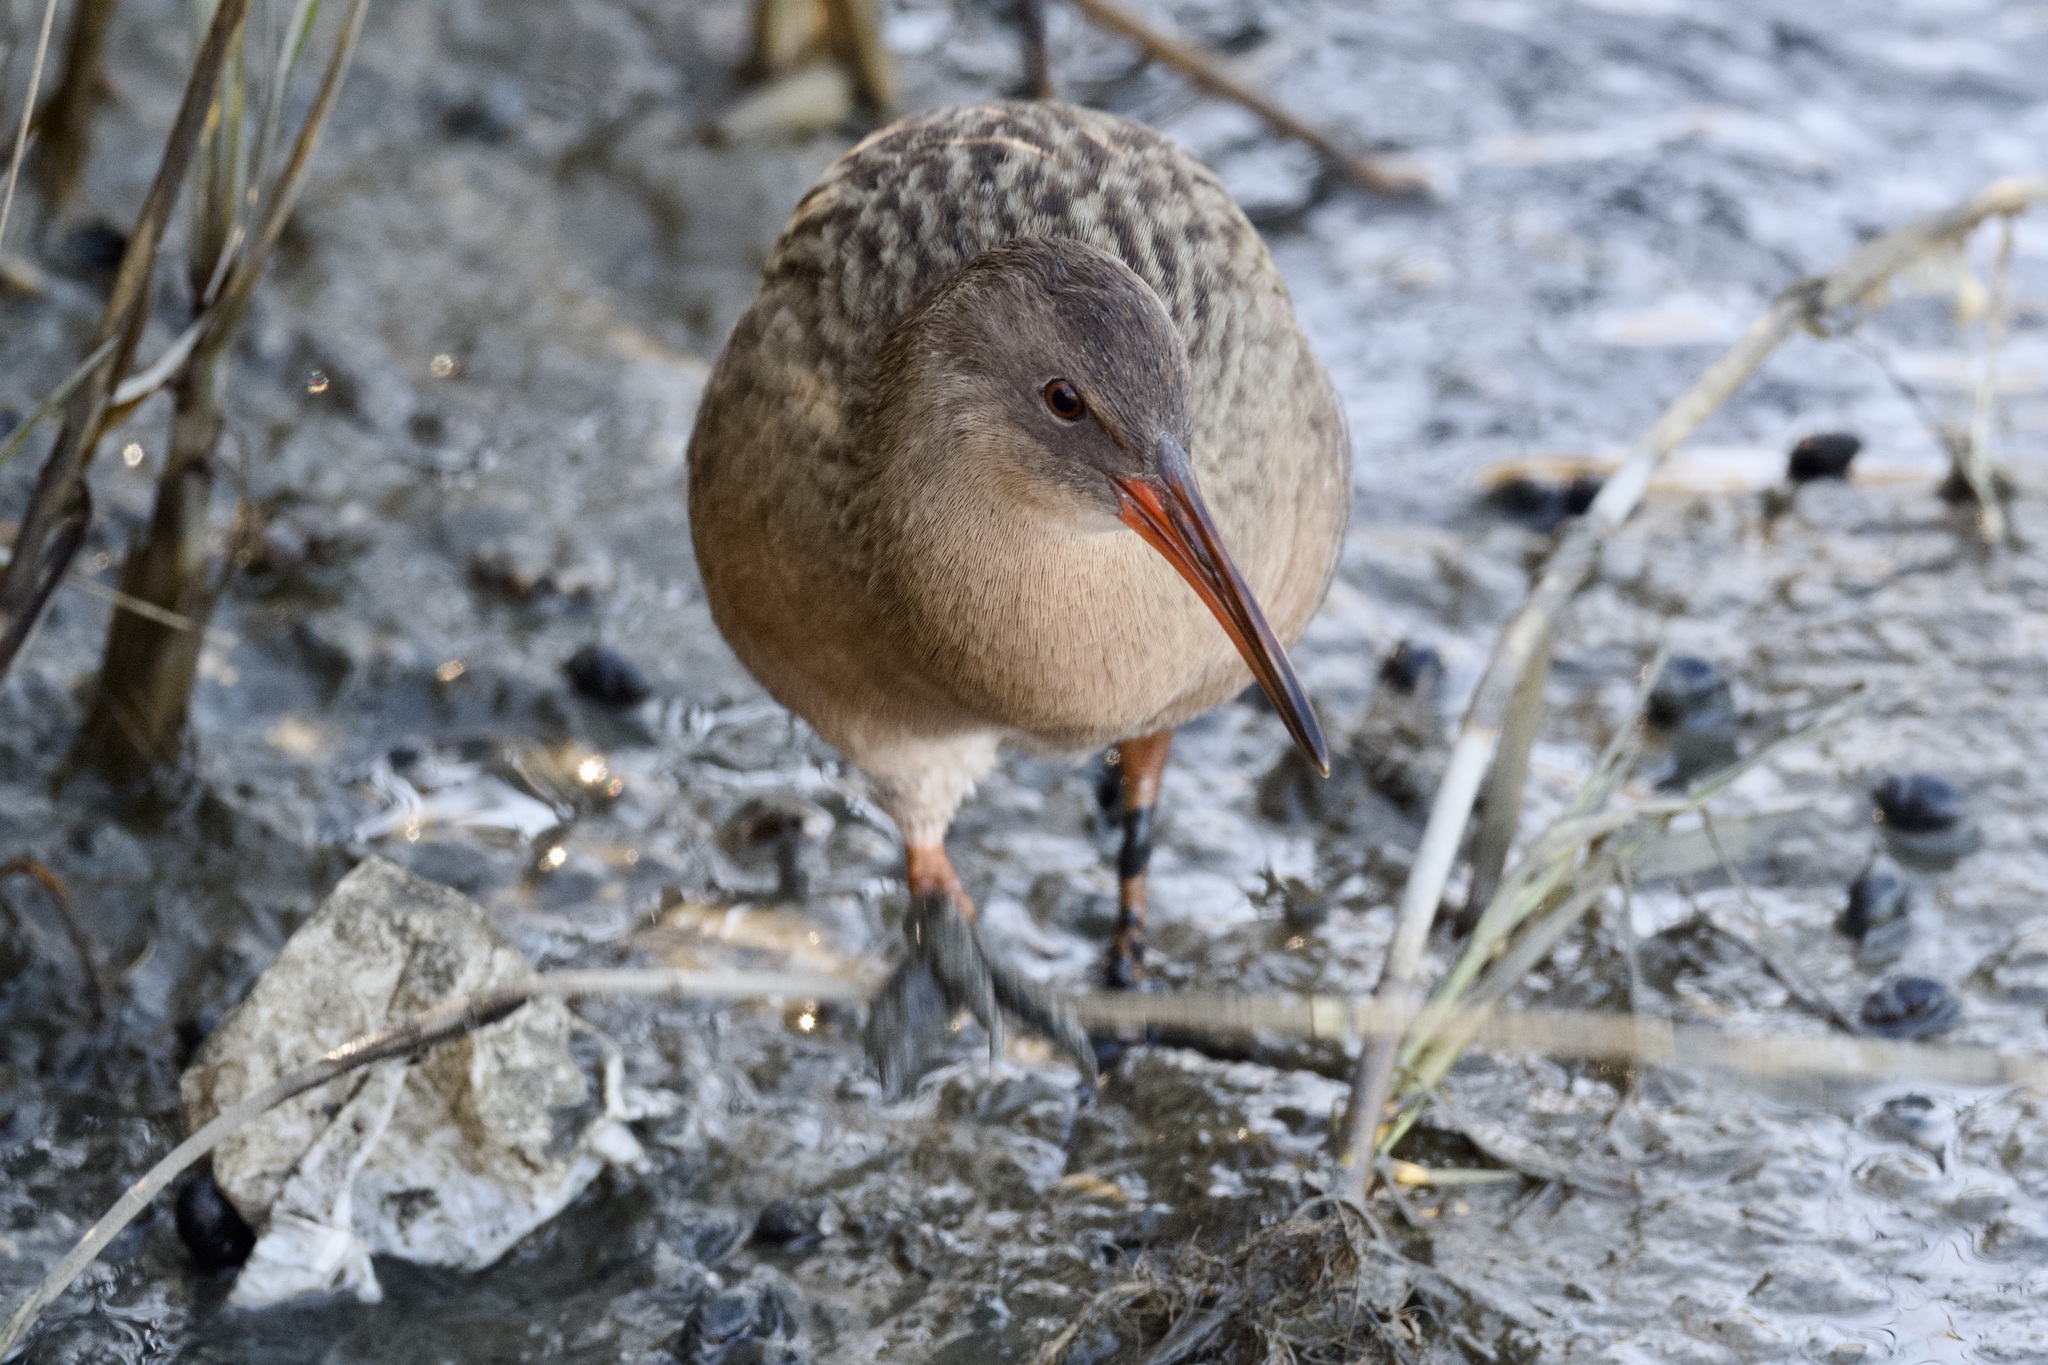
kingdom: Animalia
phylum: Chordata
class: Aves
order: Gruiformes
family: Rallidae
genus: Rallus
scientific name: Rallus obsoletus
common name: Ridgway's rail
